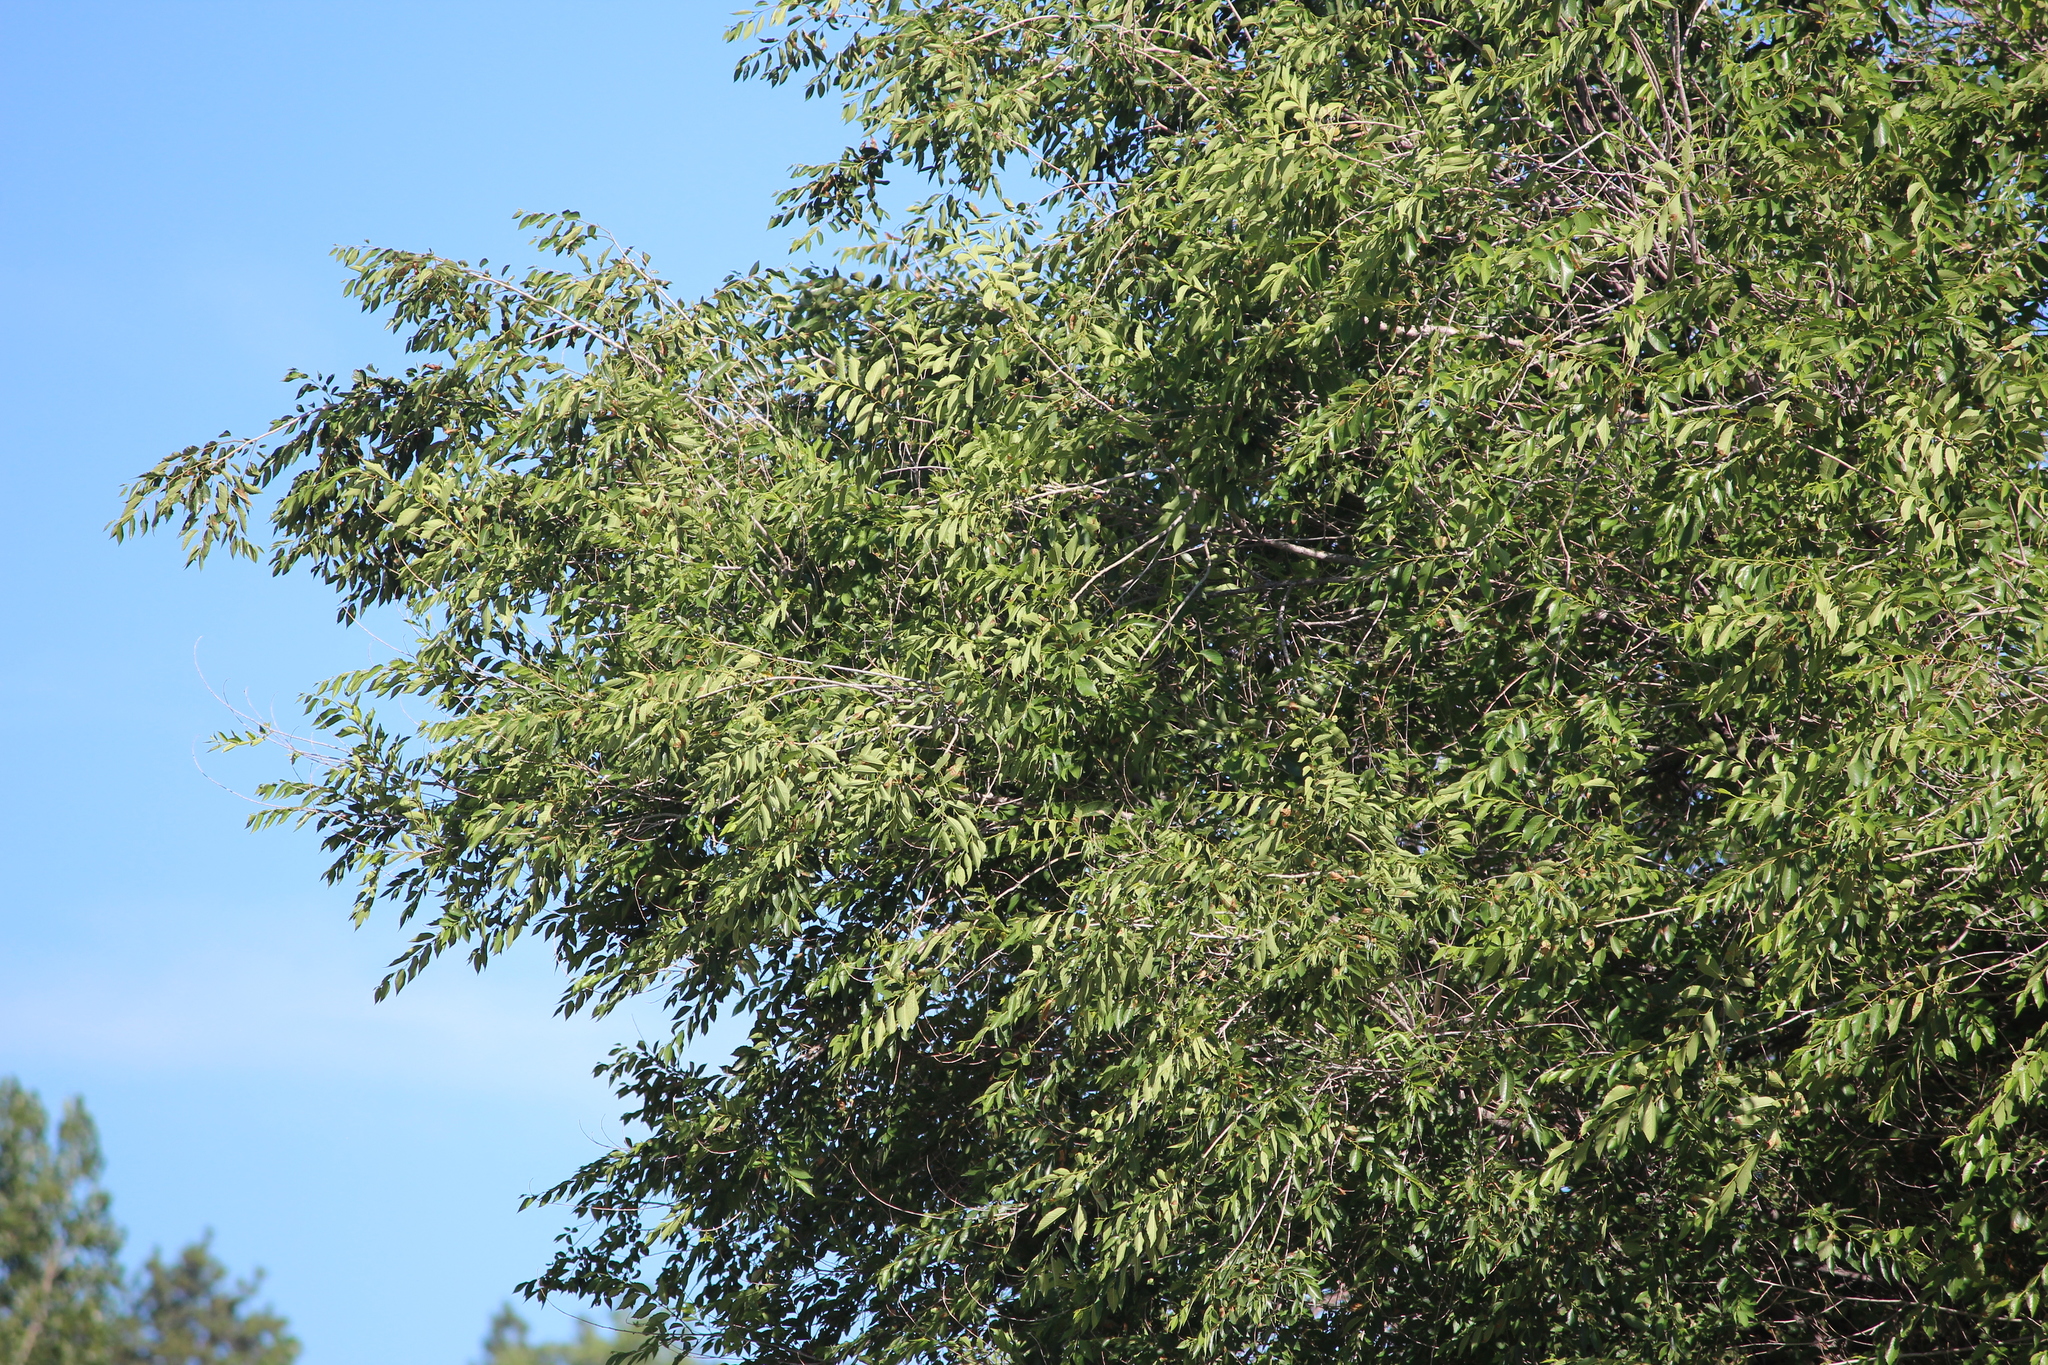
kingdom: Plantae
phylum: Tracheophyta
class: Magnoliopsida
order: Rosales
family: Ulmaceae
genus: Ulmus
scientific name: Ulmus pumila
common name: Siberian elm
